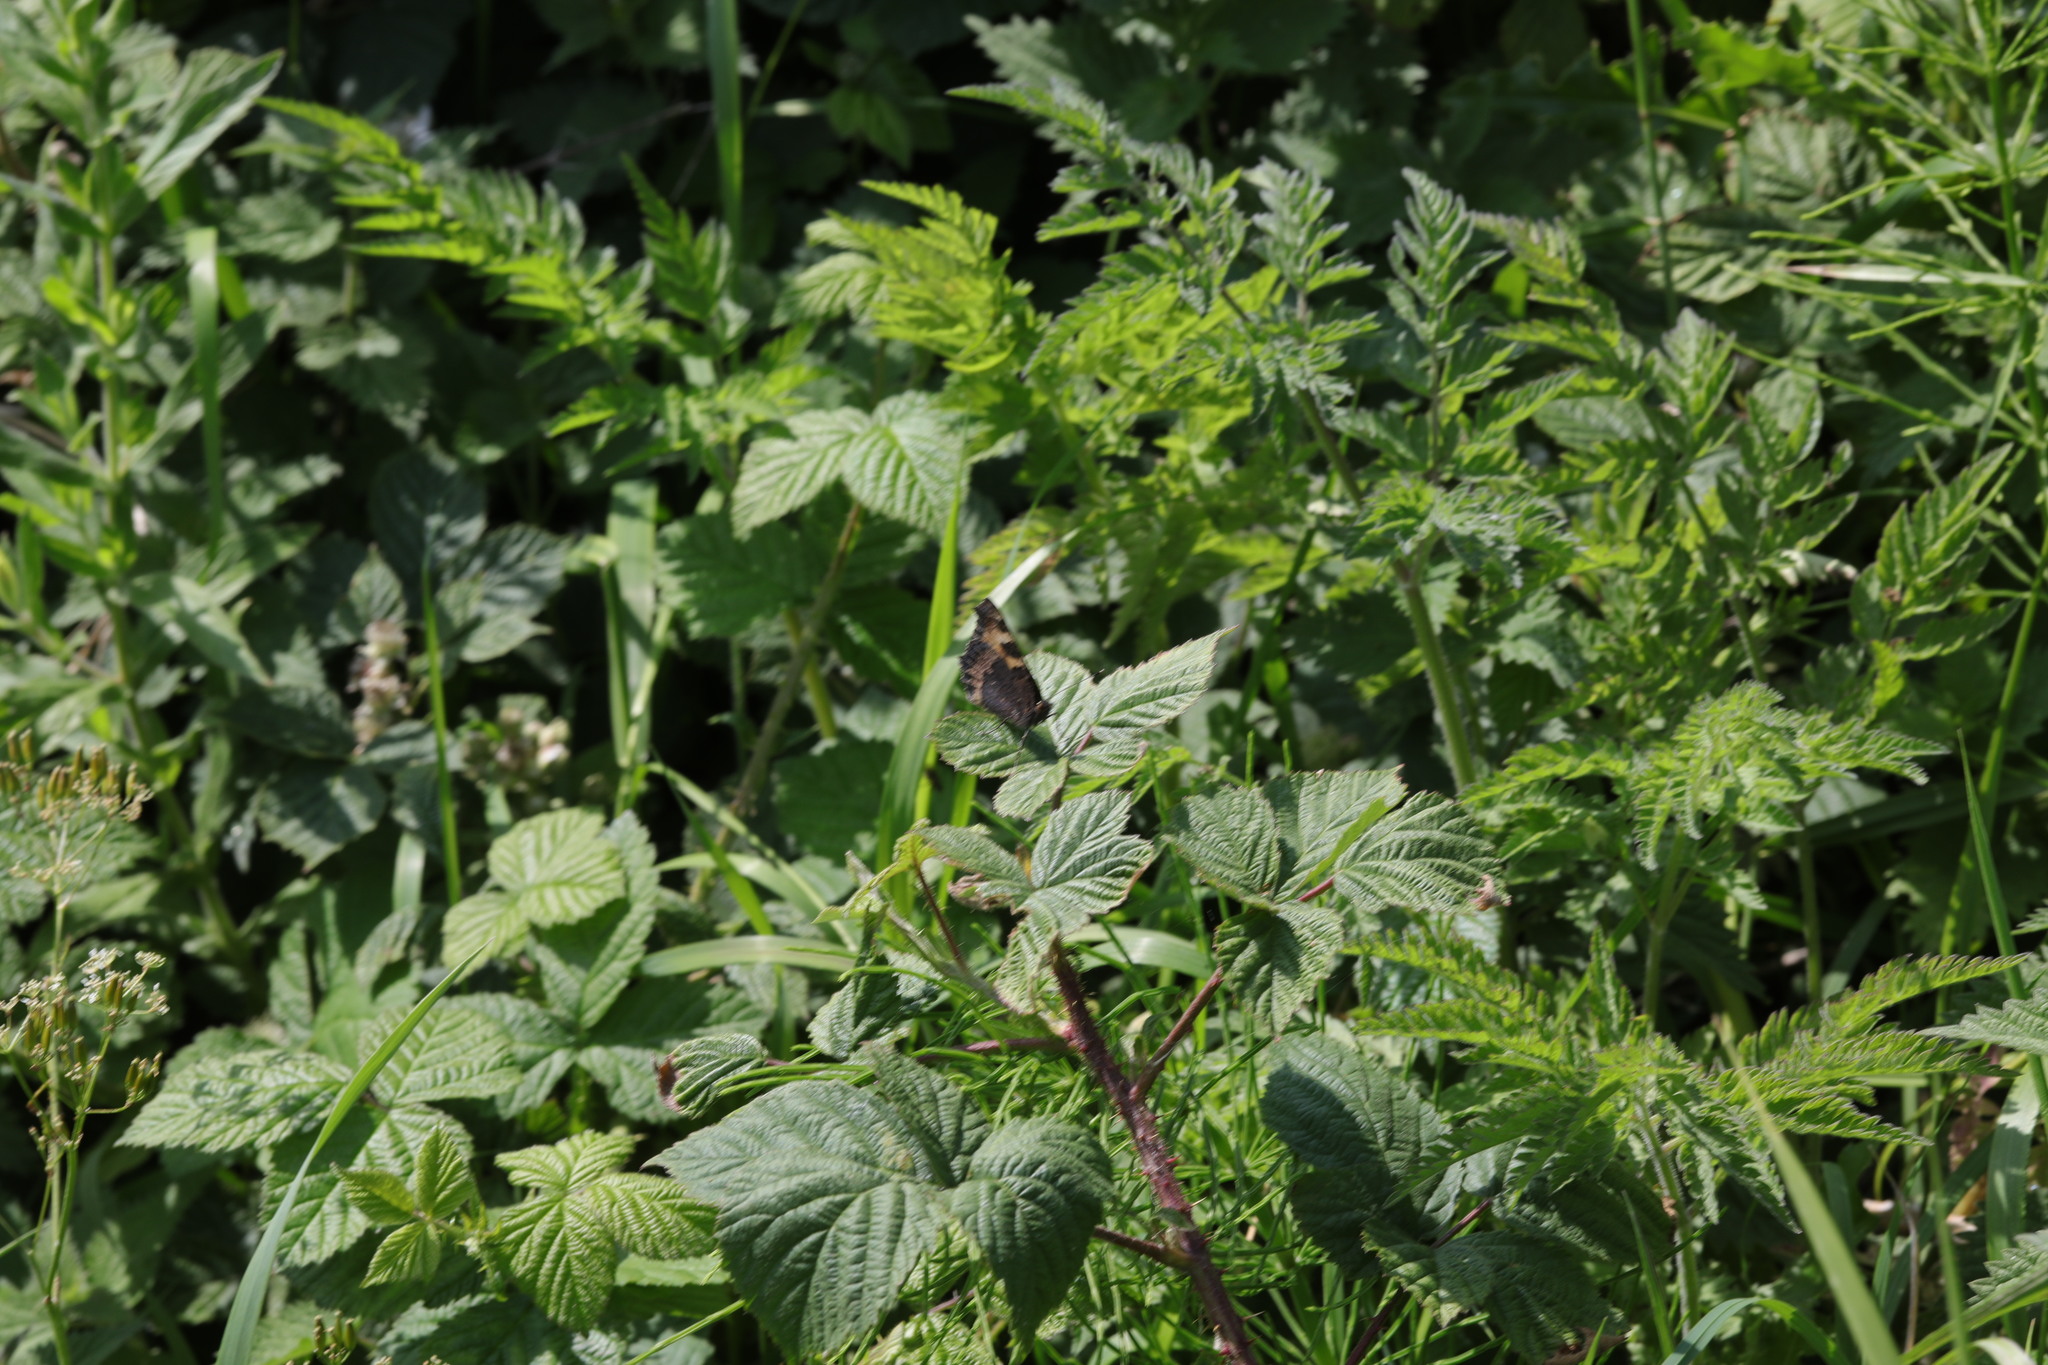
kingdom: Animalia
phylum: Arthropoda
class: Insecta
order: Lepidoptera
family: Nymphalidae
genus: Aglais
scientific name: Aglais urticae
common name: Small tortoiseshell
